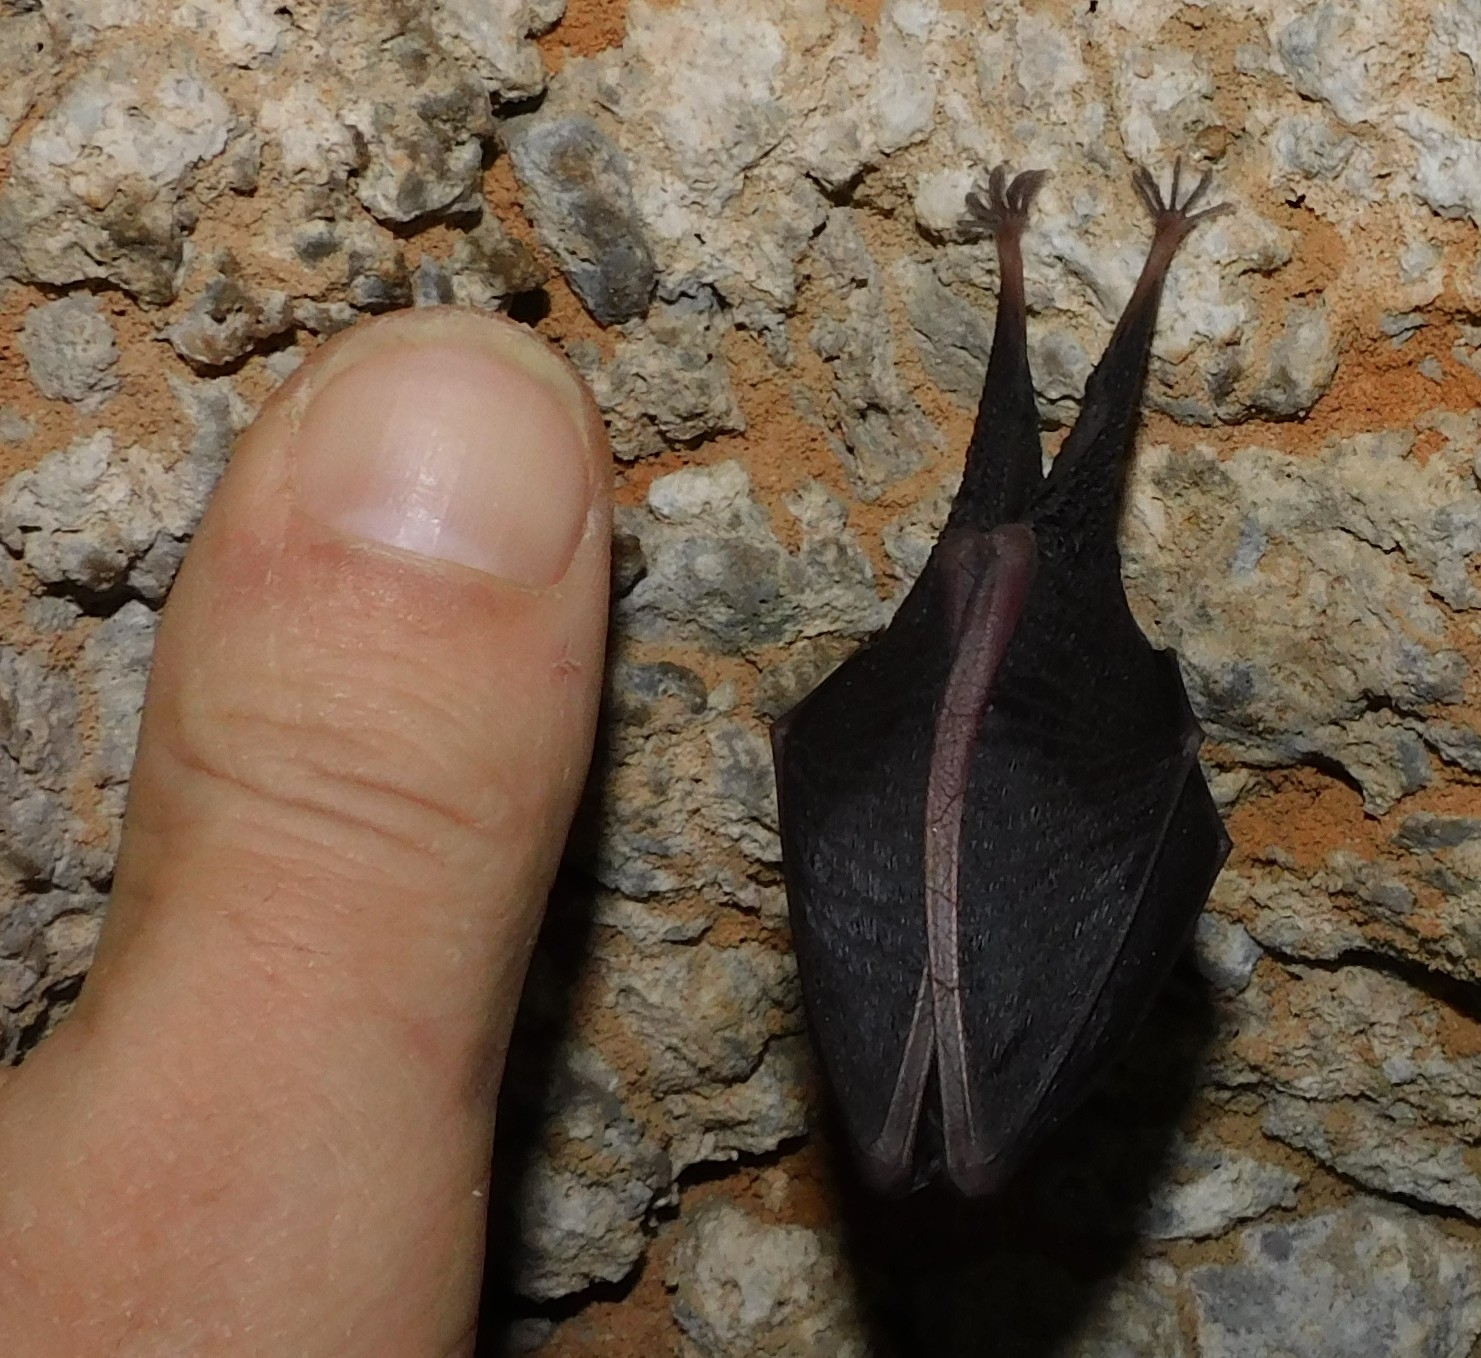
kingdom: Animalia
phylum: Chordata
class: Mammalia
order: Chiroptera
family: Rhinolophidae
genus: Rhinolophus
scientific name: Rhinolophus hipposideros
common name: Lesser horseshoe bat
